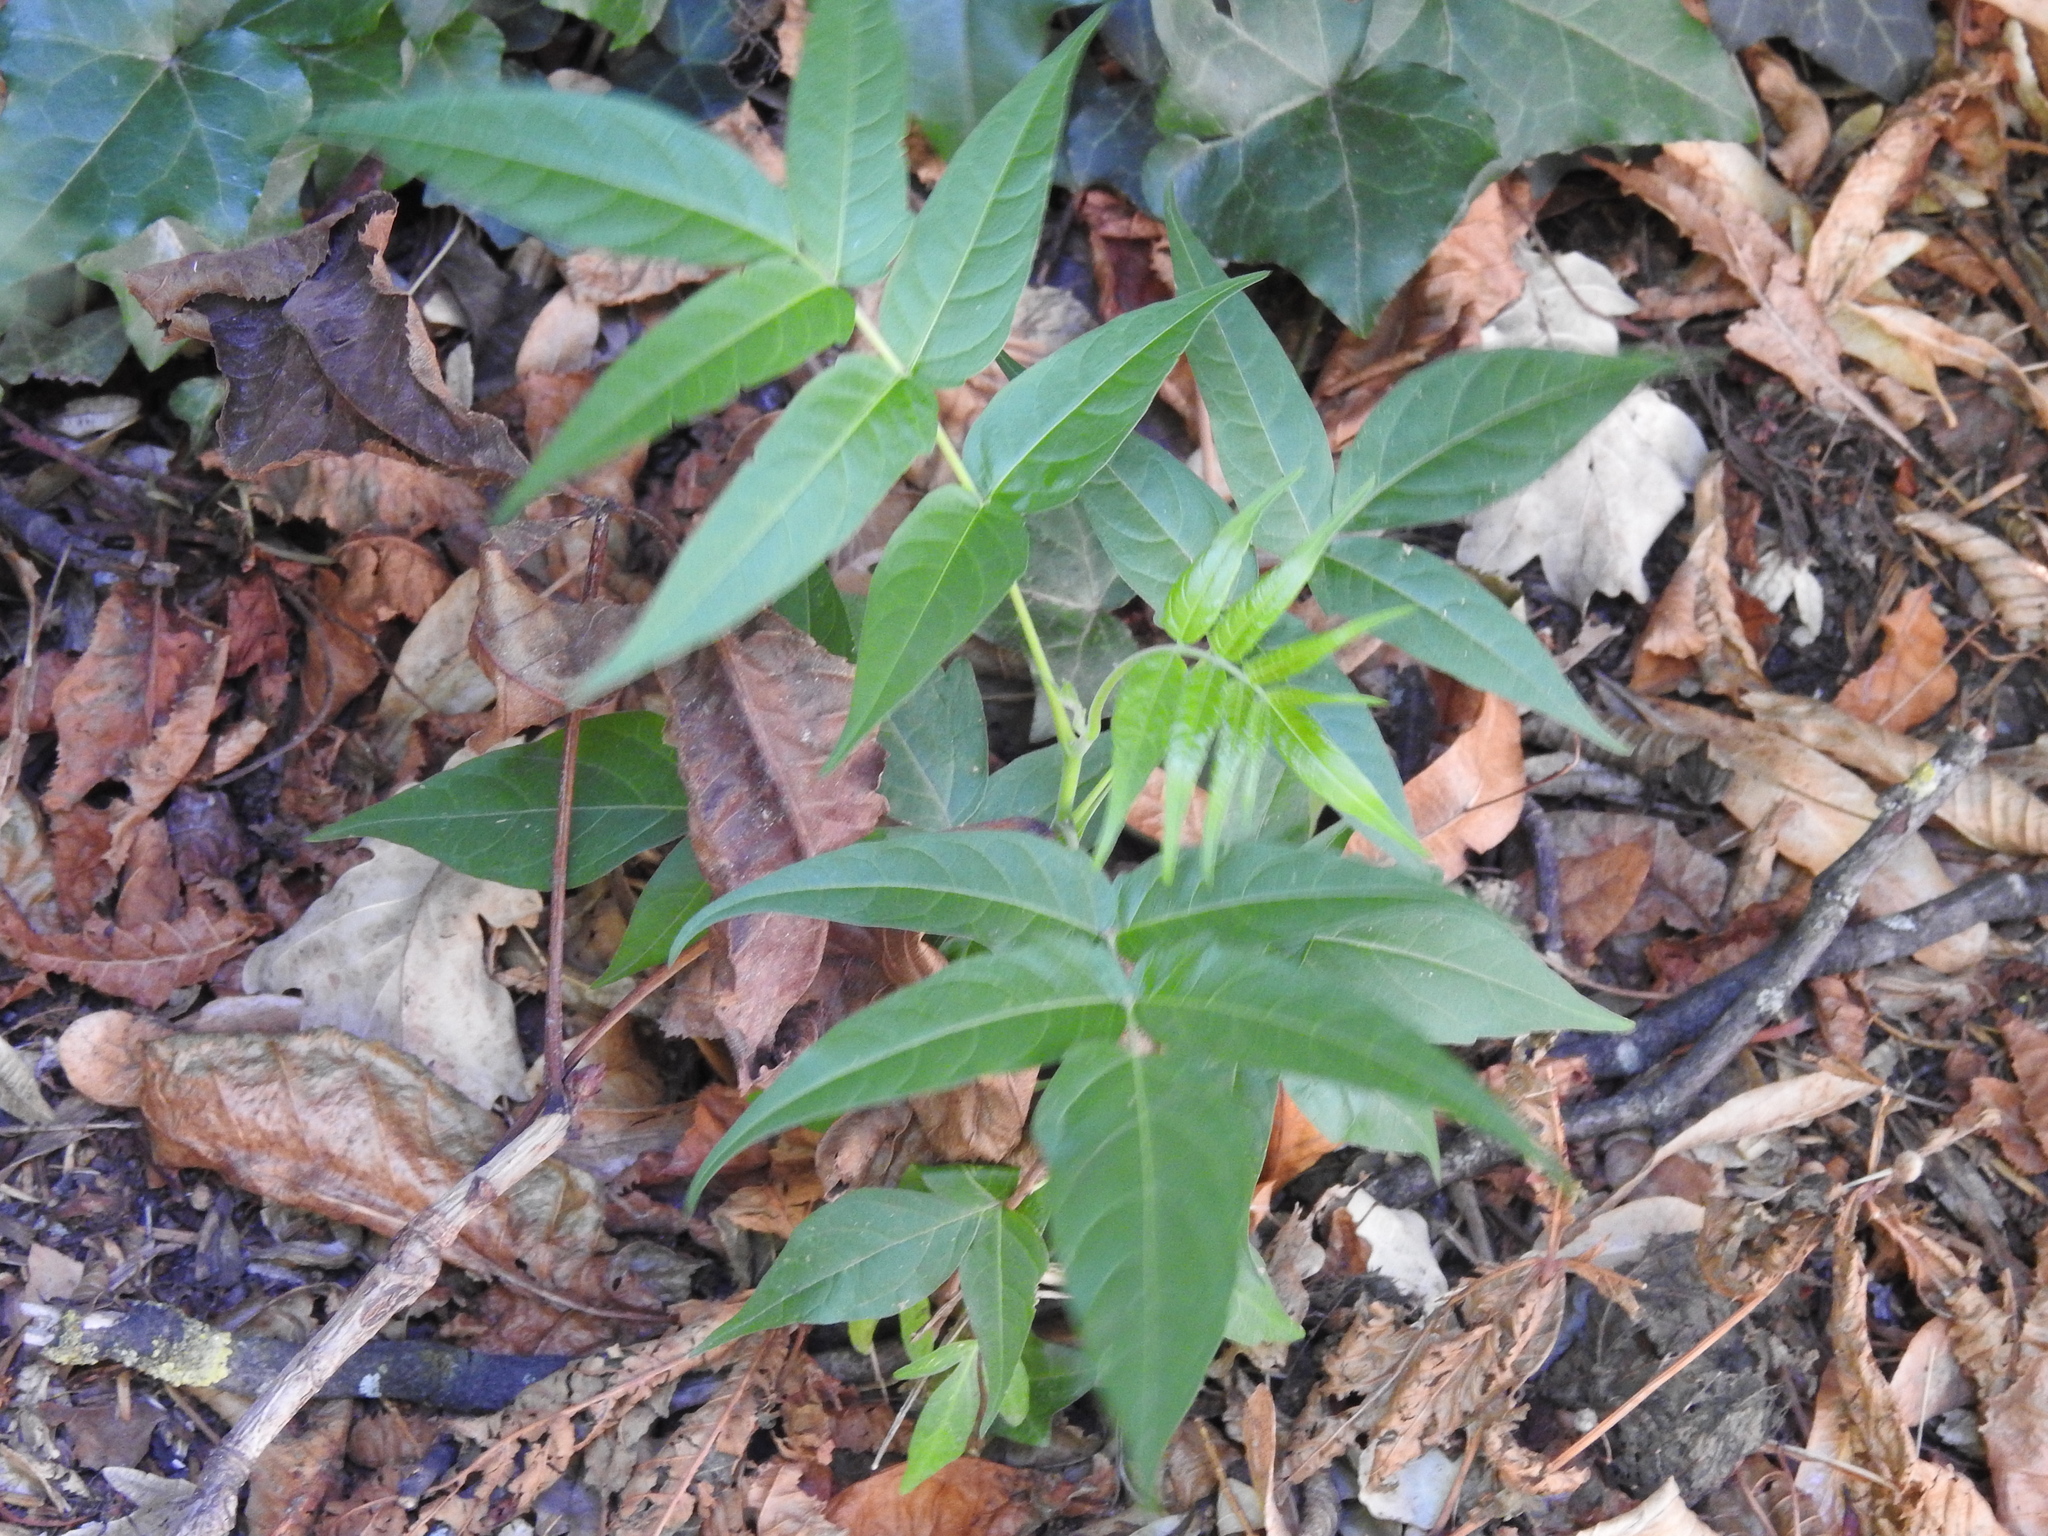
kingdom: Plantae
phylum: Tracheophyta
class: Magnoliopsida
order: Sapindales
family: Simaroubaceae
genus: Ailanthus
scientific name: Ailanthus altissima
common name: Tree-of-heaven
